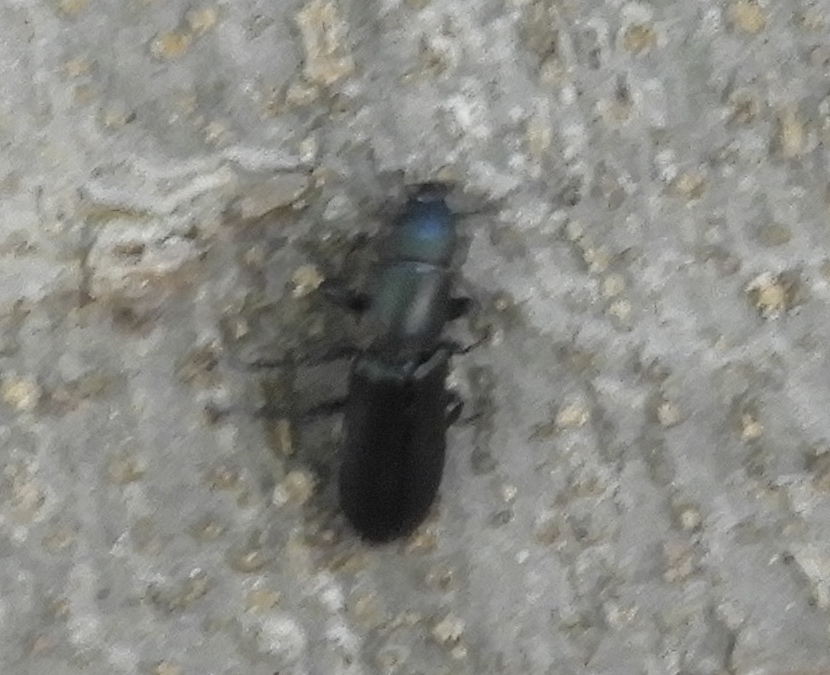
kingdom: Animalia
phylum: Arthropoda
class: Insecta
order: Coleoptera
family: Trogossitidae
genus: Temnoscheila
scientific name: Temnoscheila
